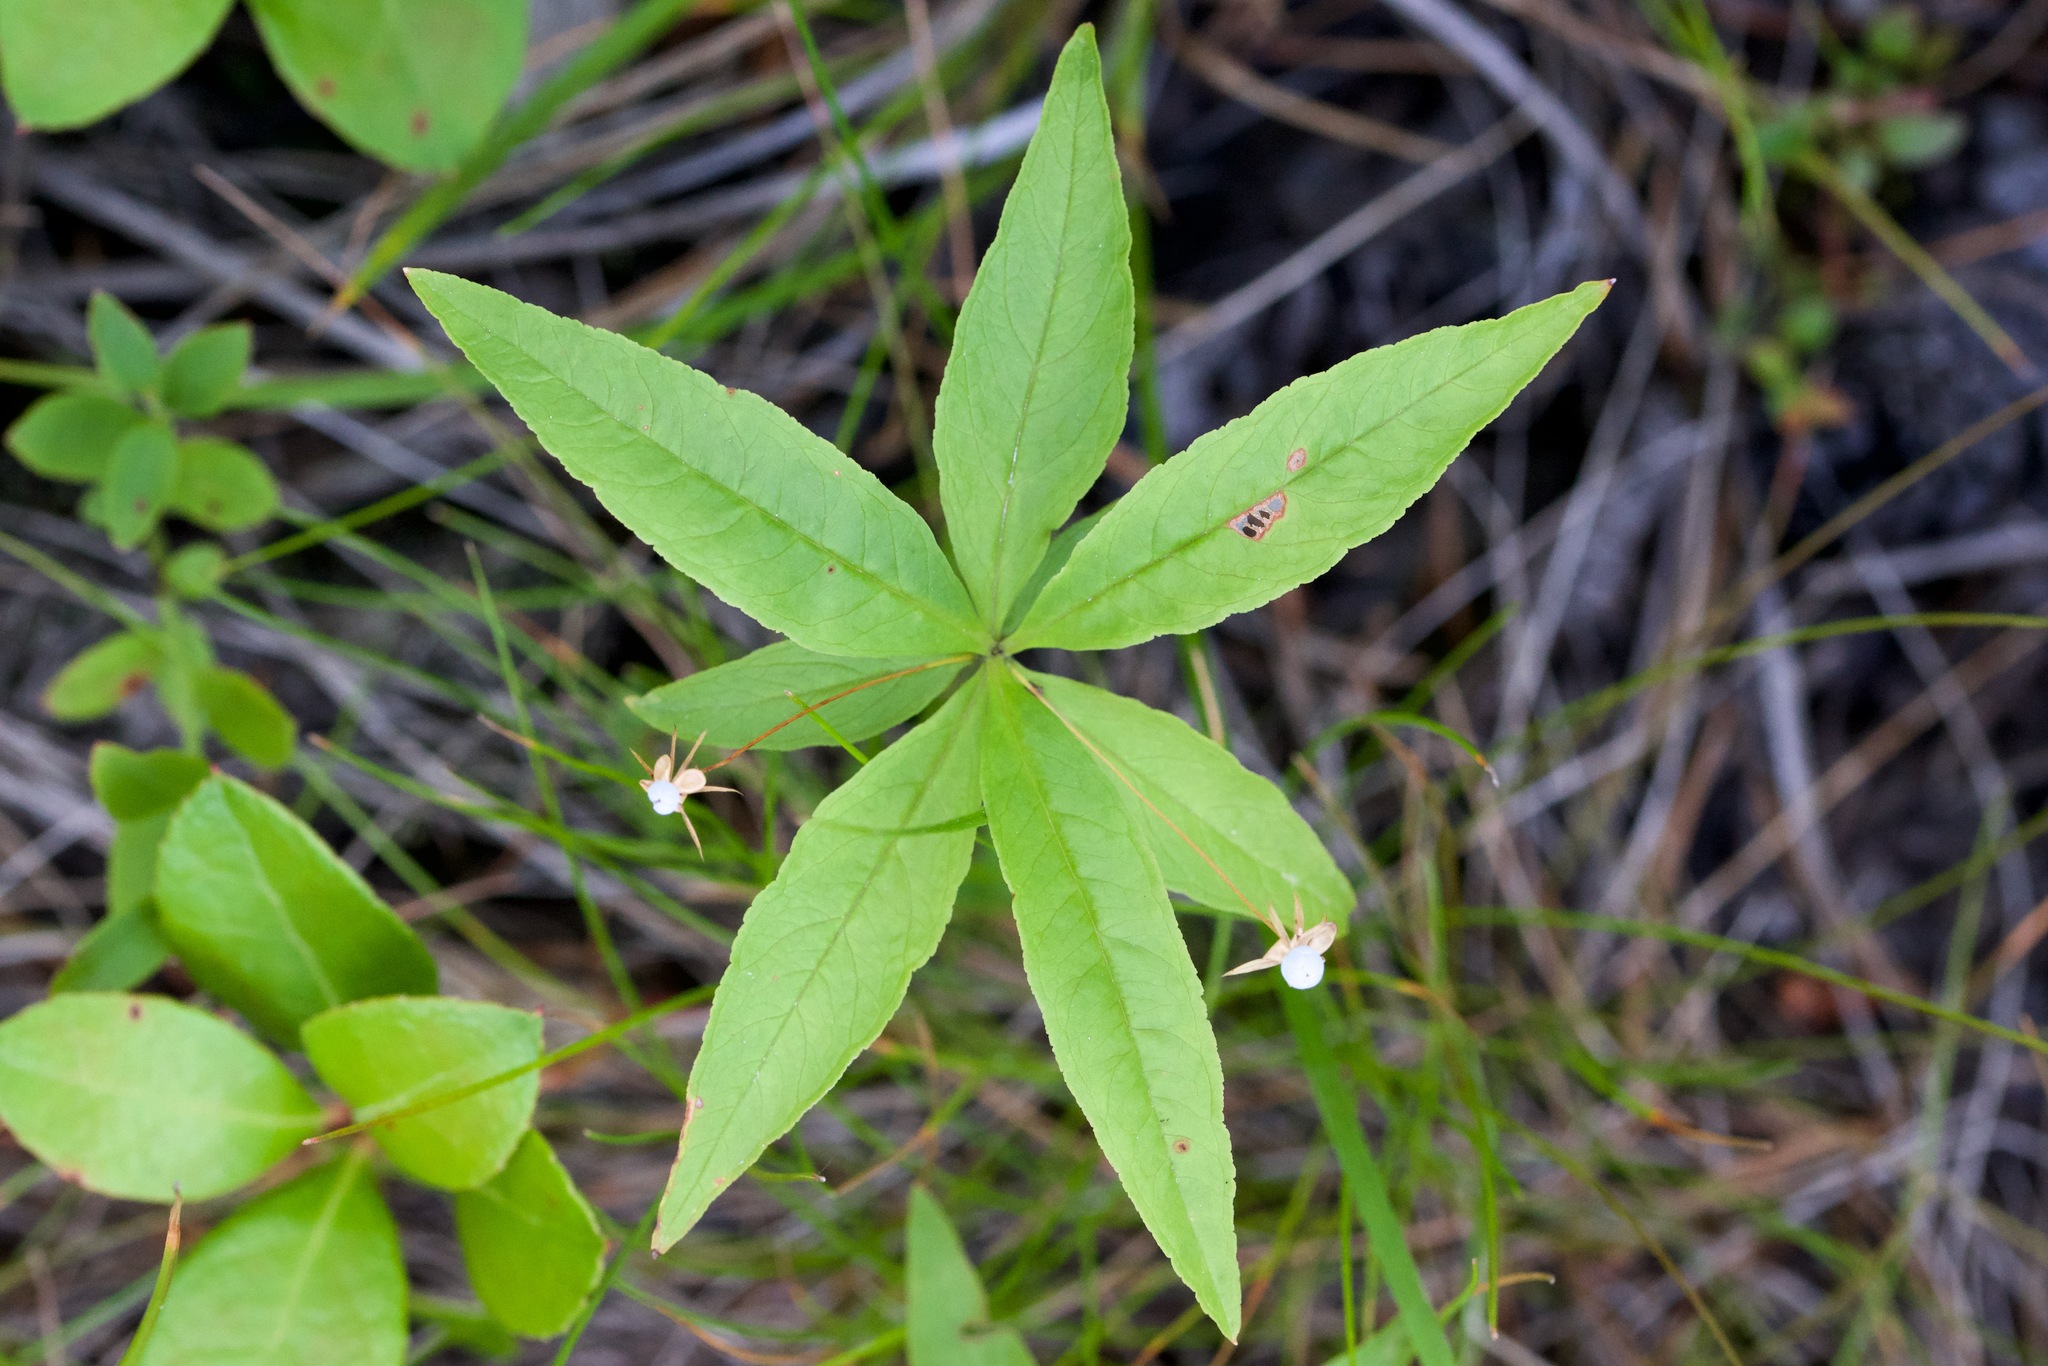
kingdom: Plantae
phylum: Tracheophyta
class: Magnoliopsida
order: Ericales
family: Primulaceae
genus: Lysimachia
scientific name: Lysimachia borealis
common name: American starflower
